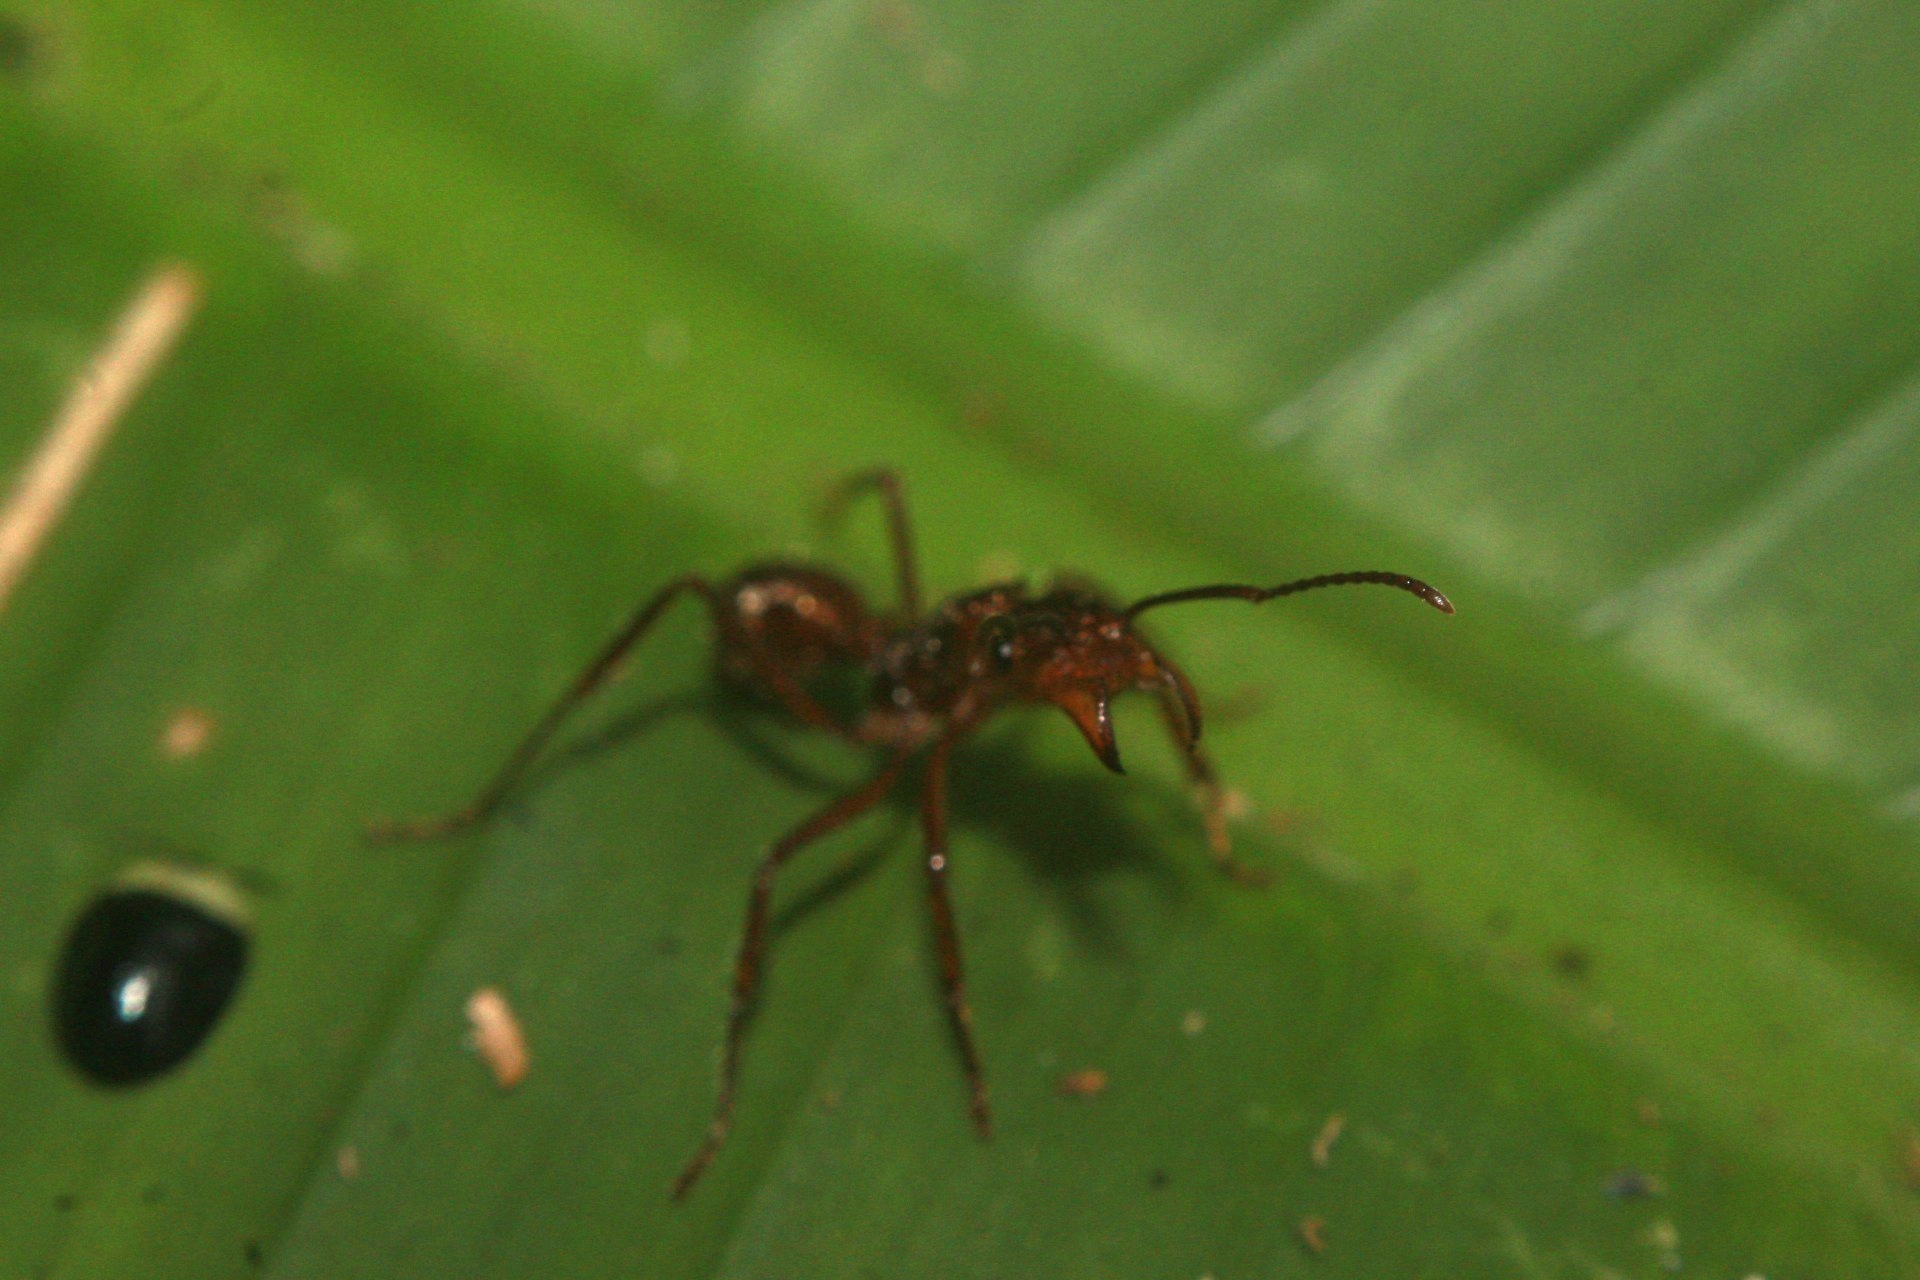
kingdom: Animalia
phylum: Arthropoda
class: Insecta
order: Hymenoptera
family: Formicidae
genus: Ectatomma
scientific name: Ectatomma tuberculatum
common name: Ant
